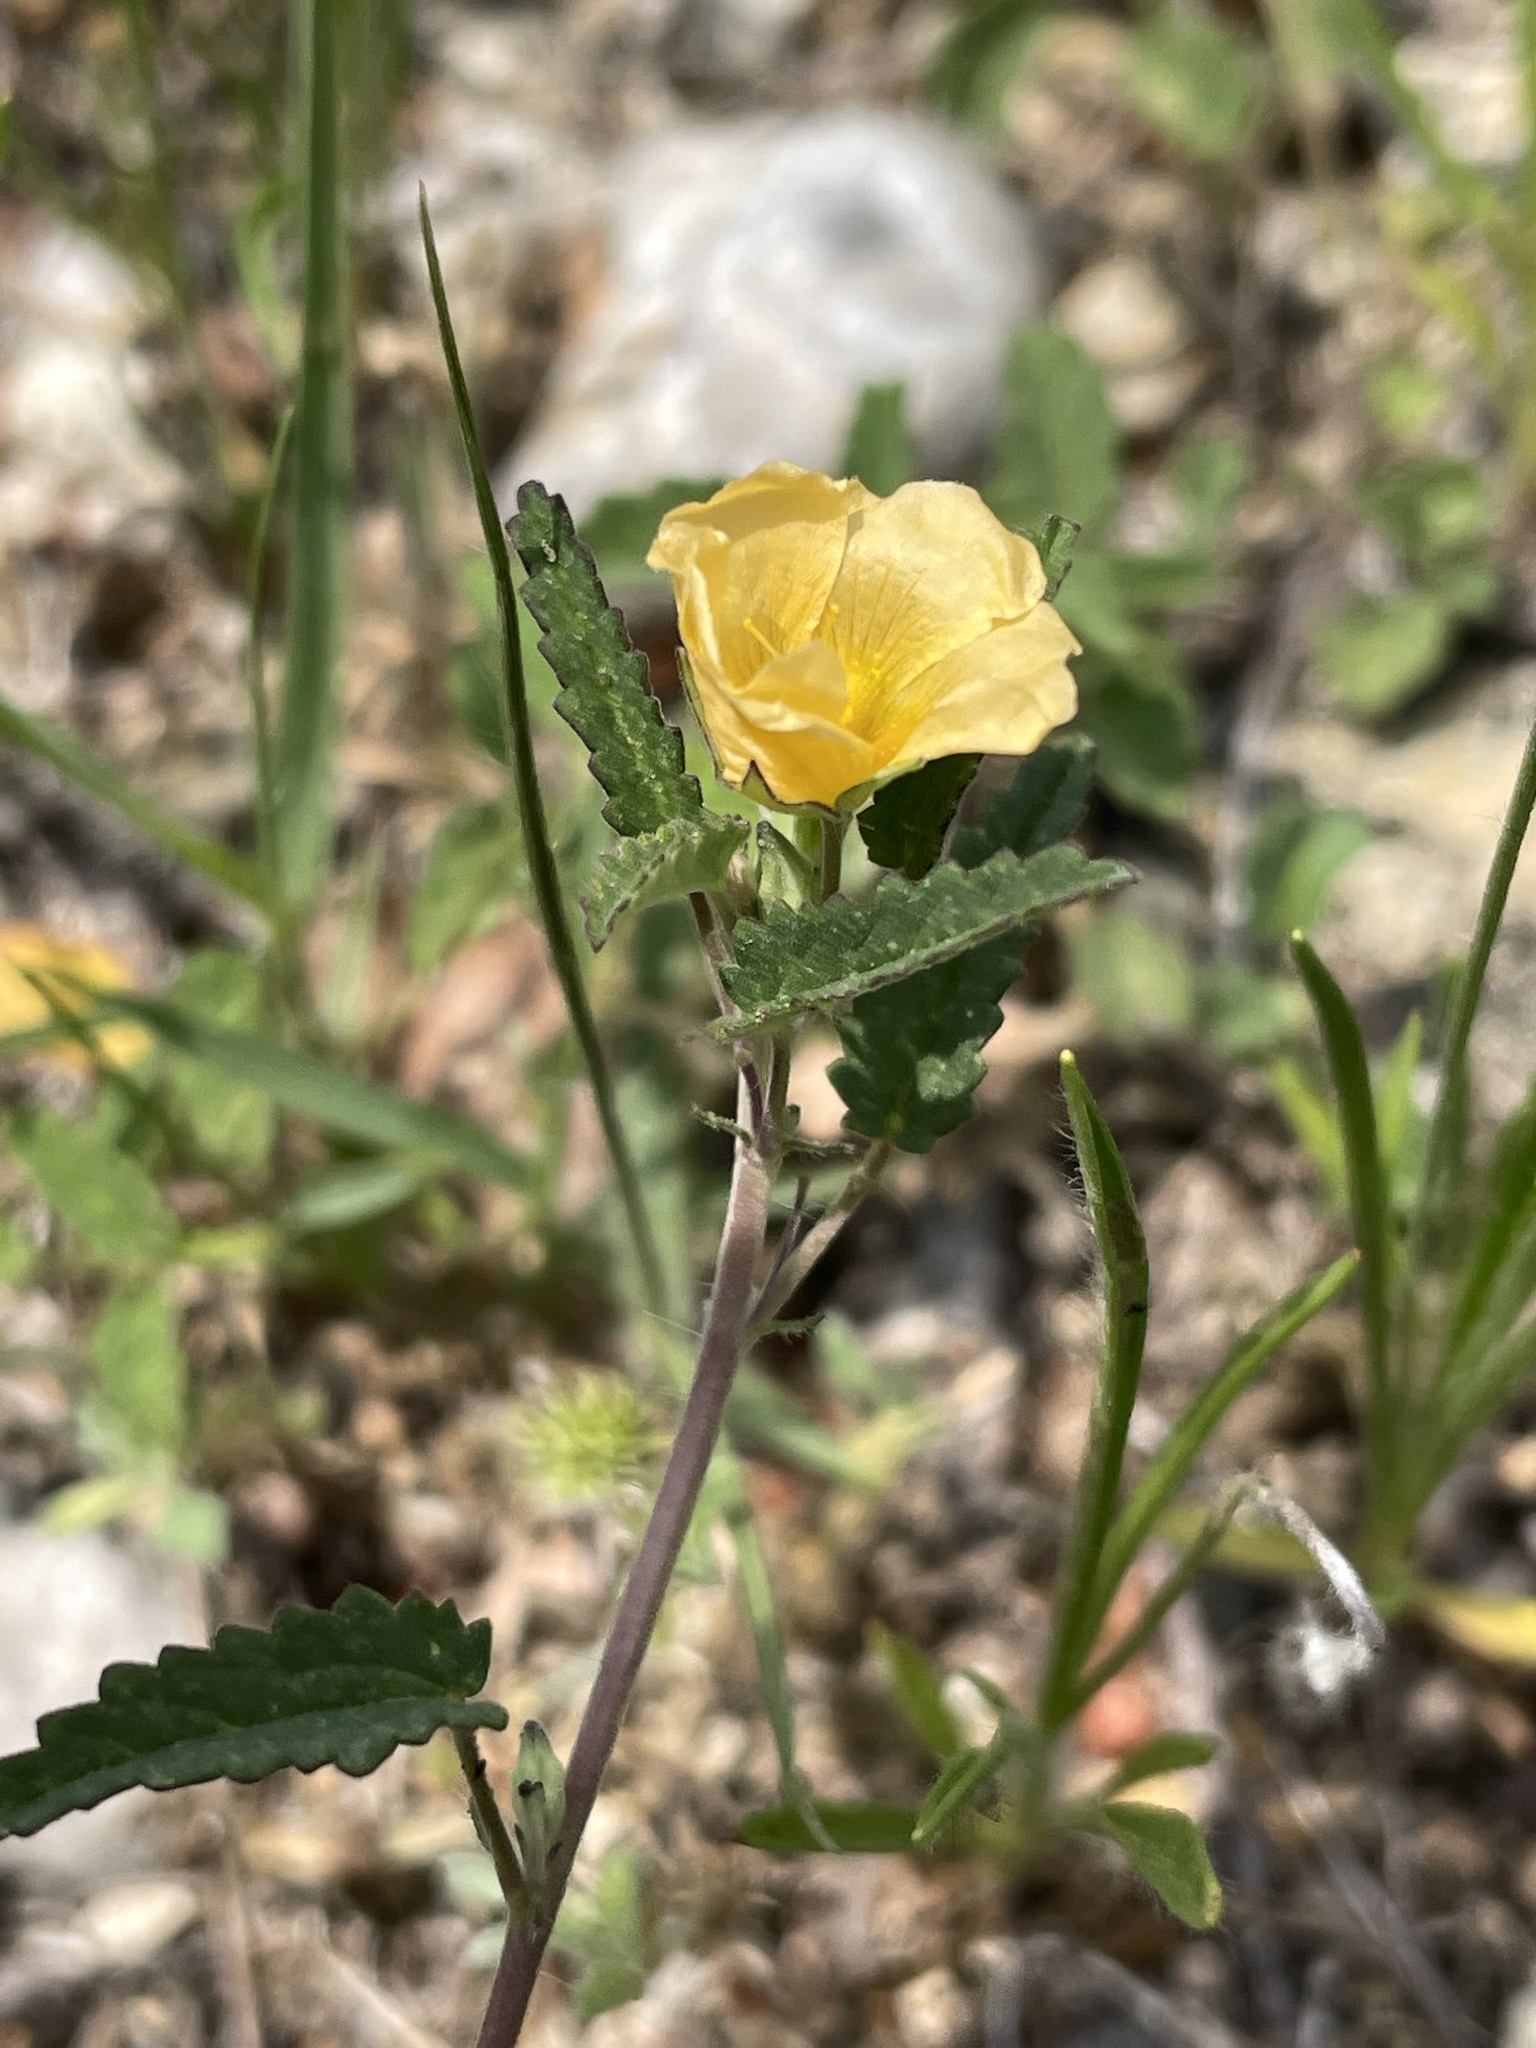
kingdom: Plantae
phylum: Tracheophyta
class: Magnoliopsida
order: Malvales
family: Malvaceae
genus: Sida
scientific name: Sida abutilifolia
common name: Spreading fanpetals
